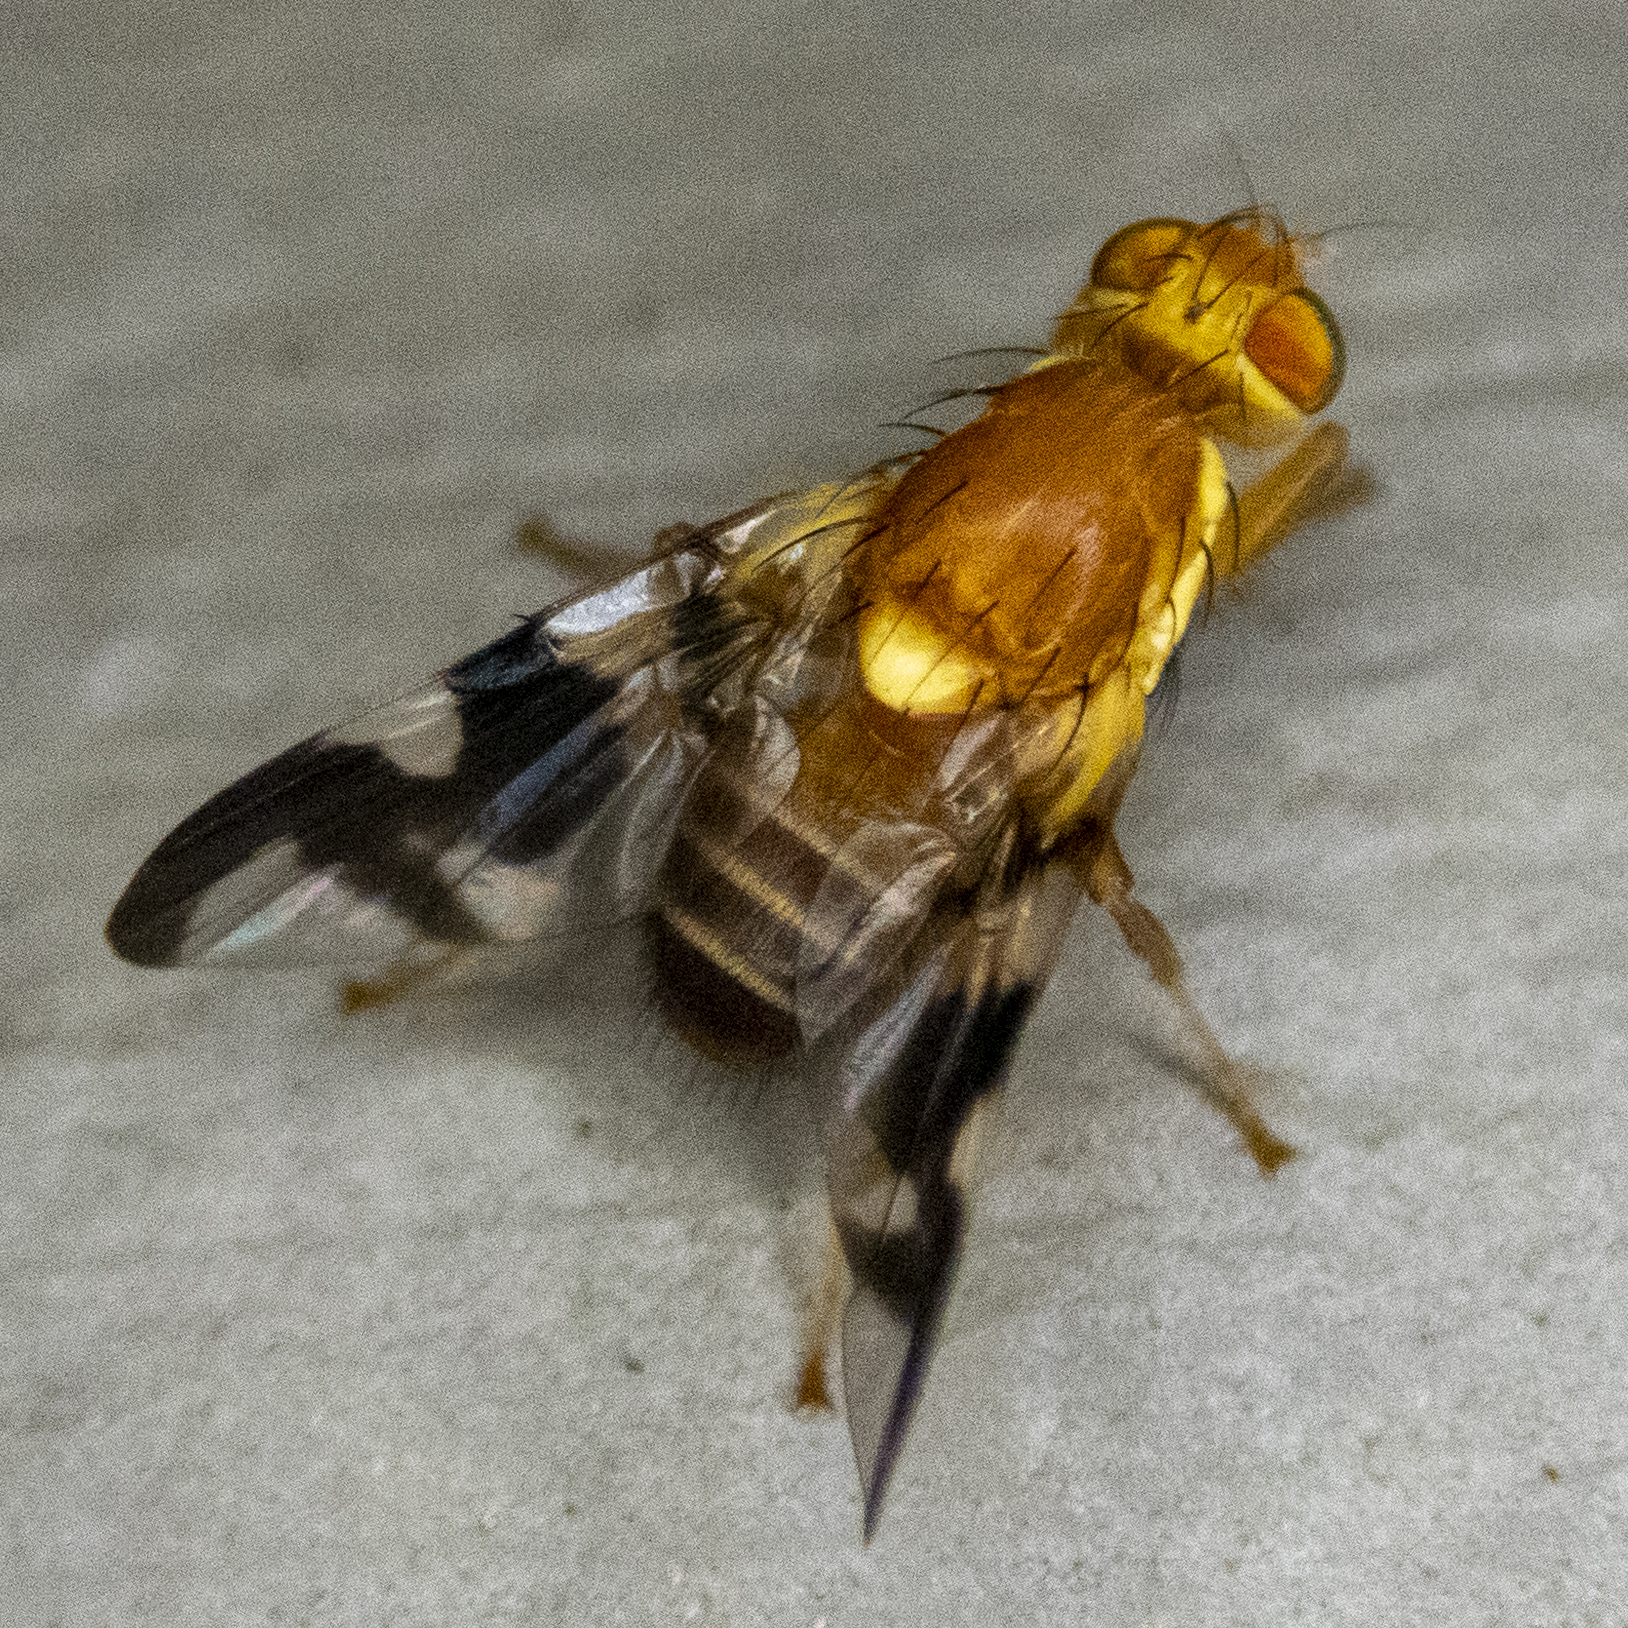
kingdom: Animalia
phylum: Arthropoda
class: Insecta
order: Diptera
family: Tephritidae
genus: Rhagoletis
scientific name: Rhagoletis suavis
